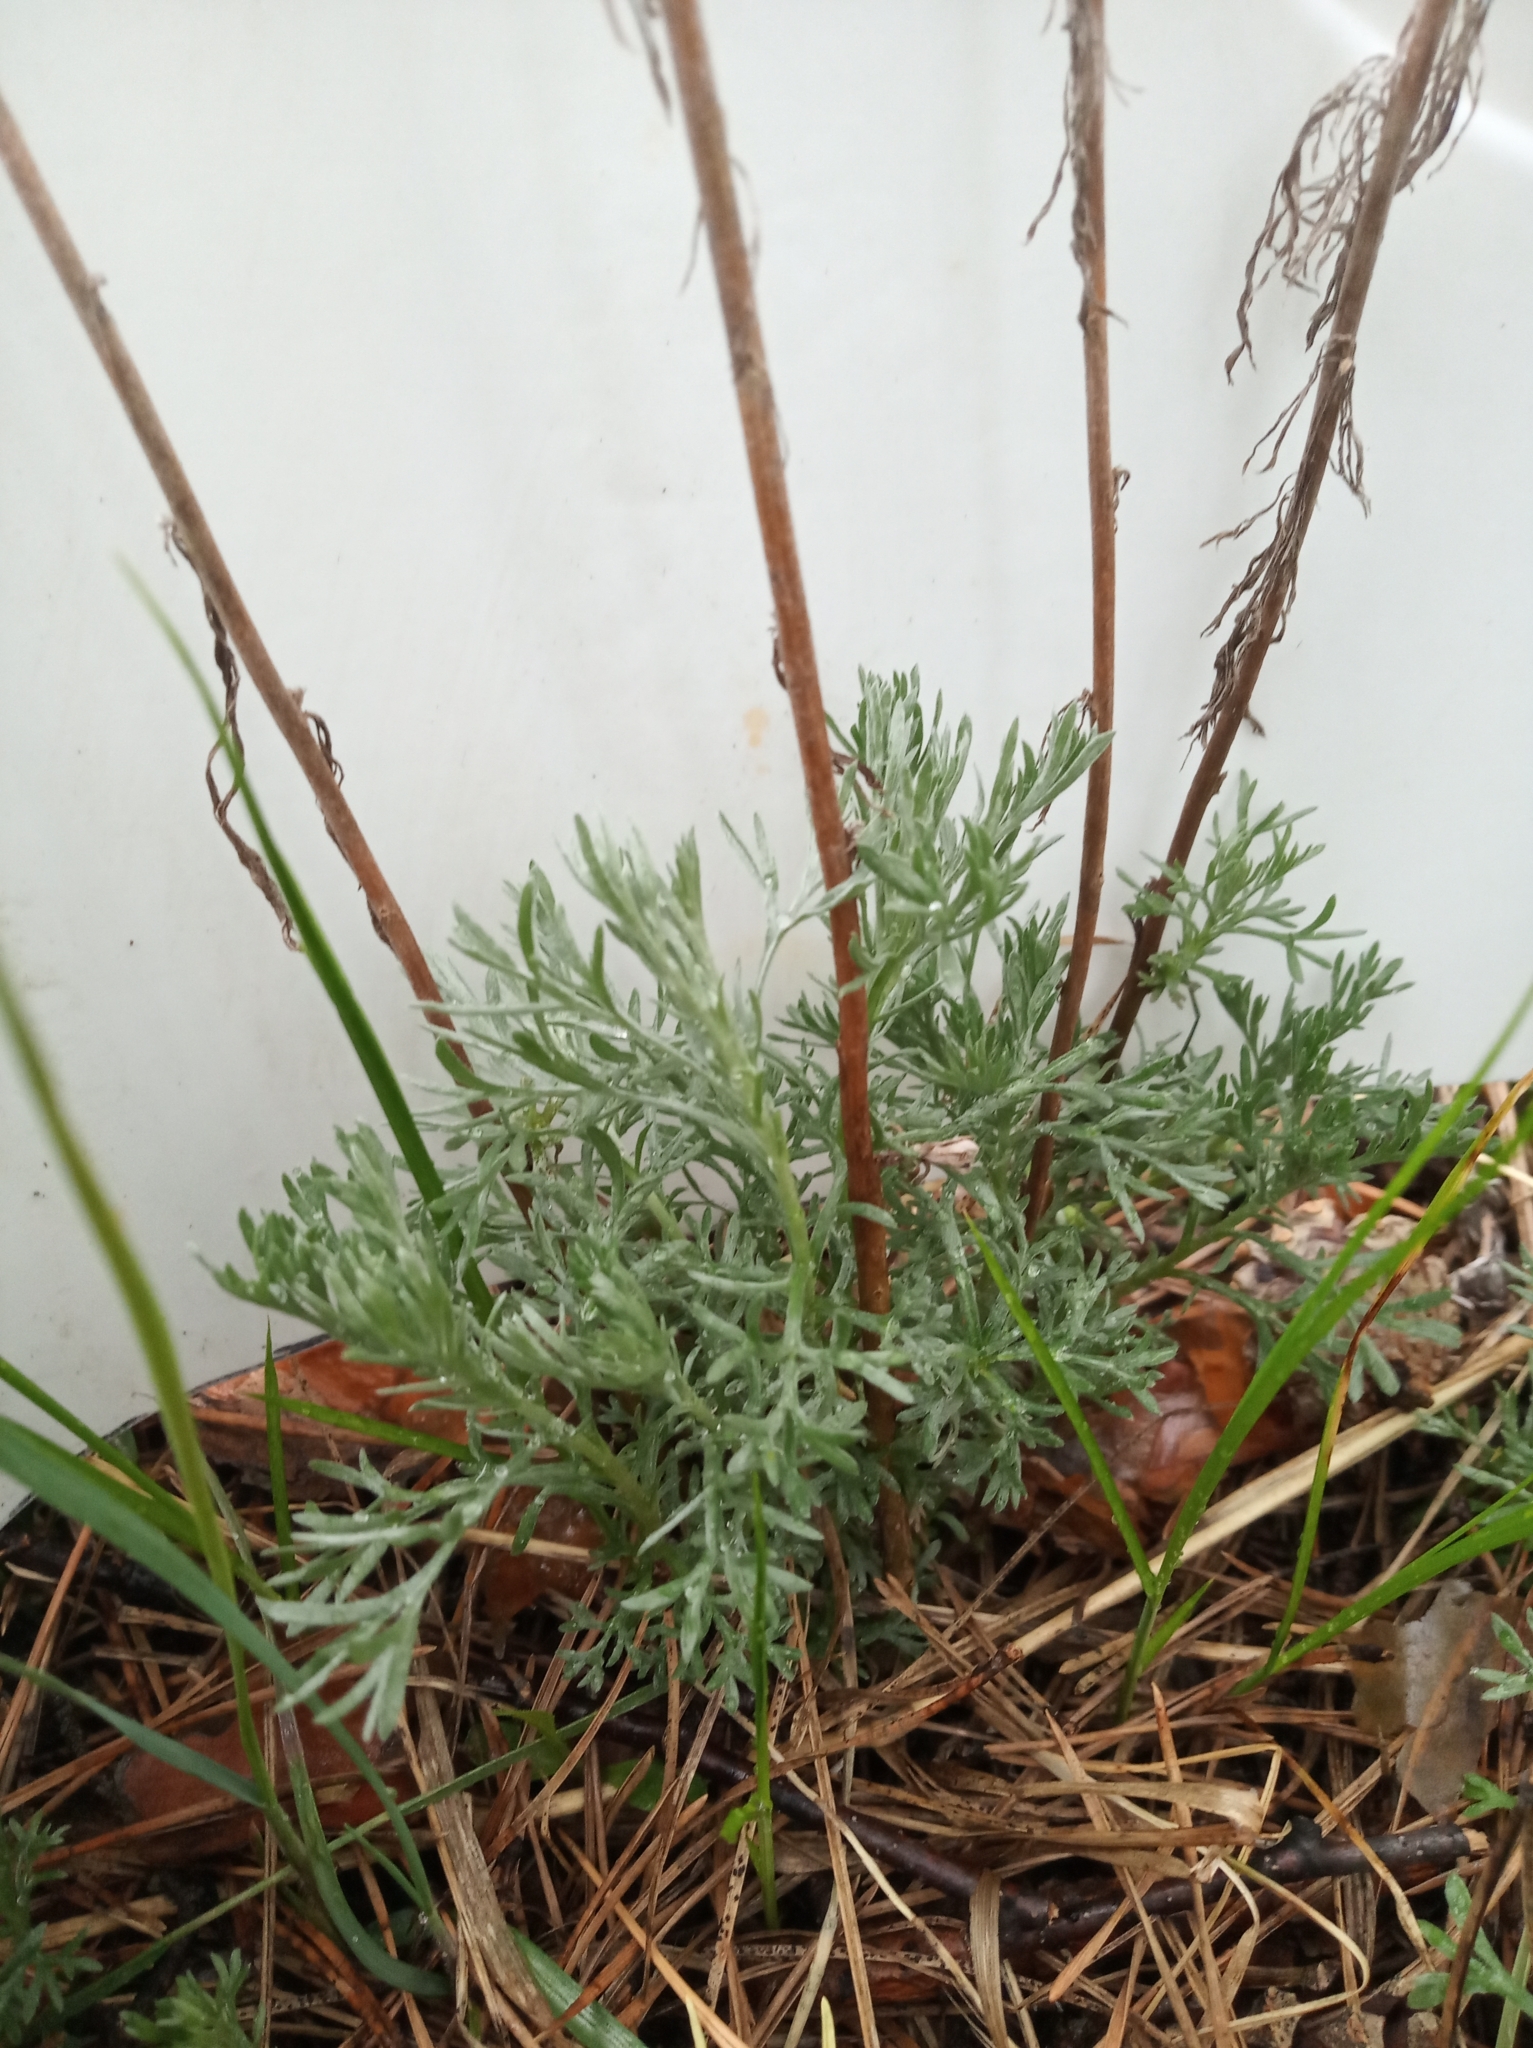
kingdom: Plantae
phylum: Tracheophyta
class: Magnoliopsida
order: Asterales
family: Asteraceae
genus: Artemisia
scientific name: Artemisia campestris
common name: Field wormwood
